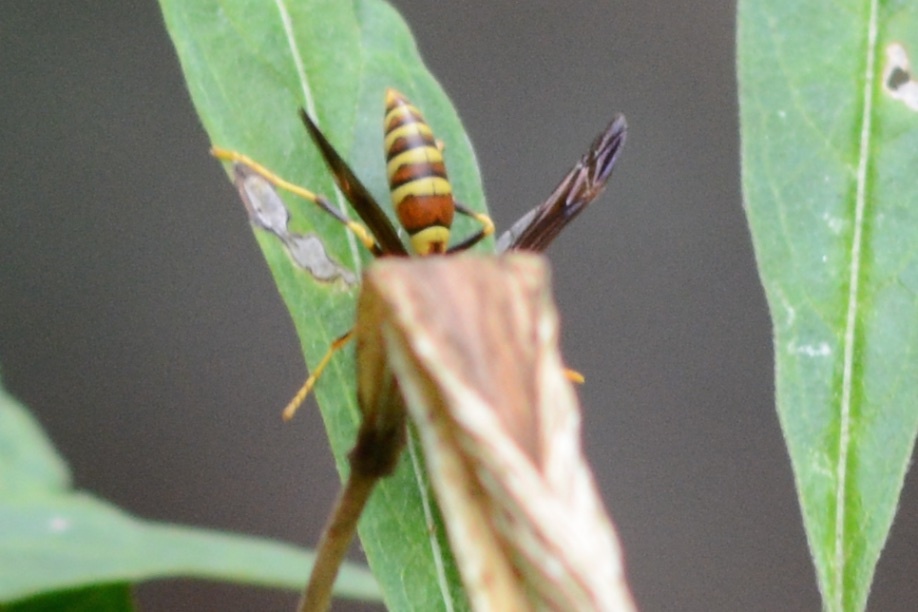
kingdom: Animalia
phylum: Arthropoda
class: Insecta
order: Hymenoptera
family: Eumenidae
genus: Polistes
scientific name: Polistes exclamans
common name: Paper wasp
